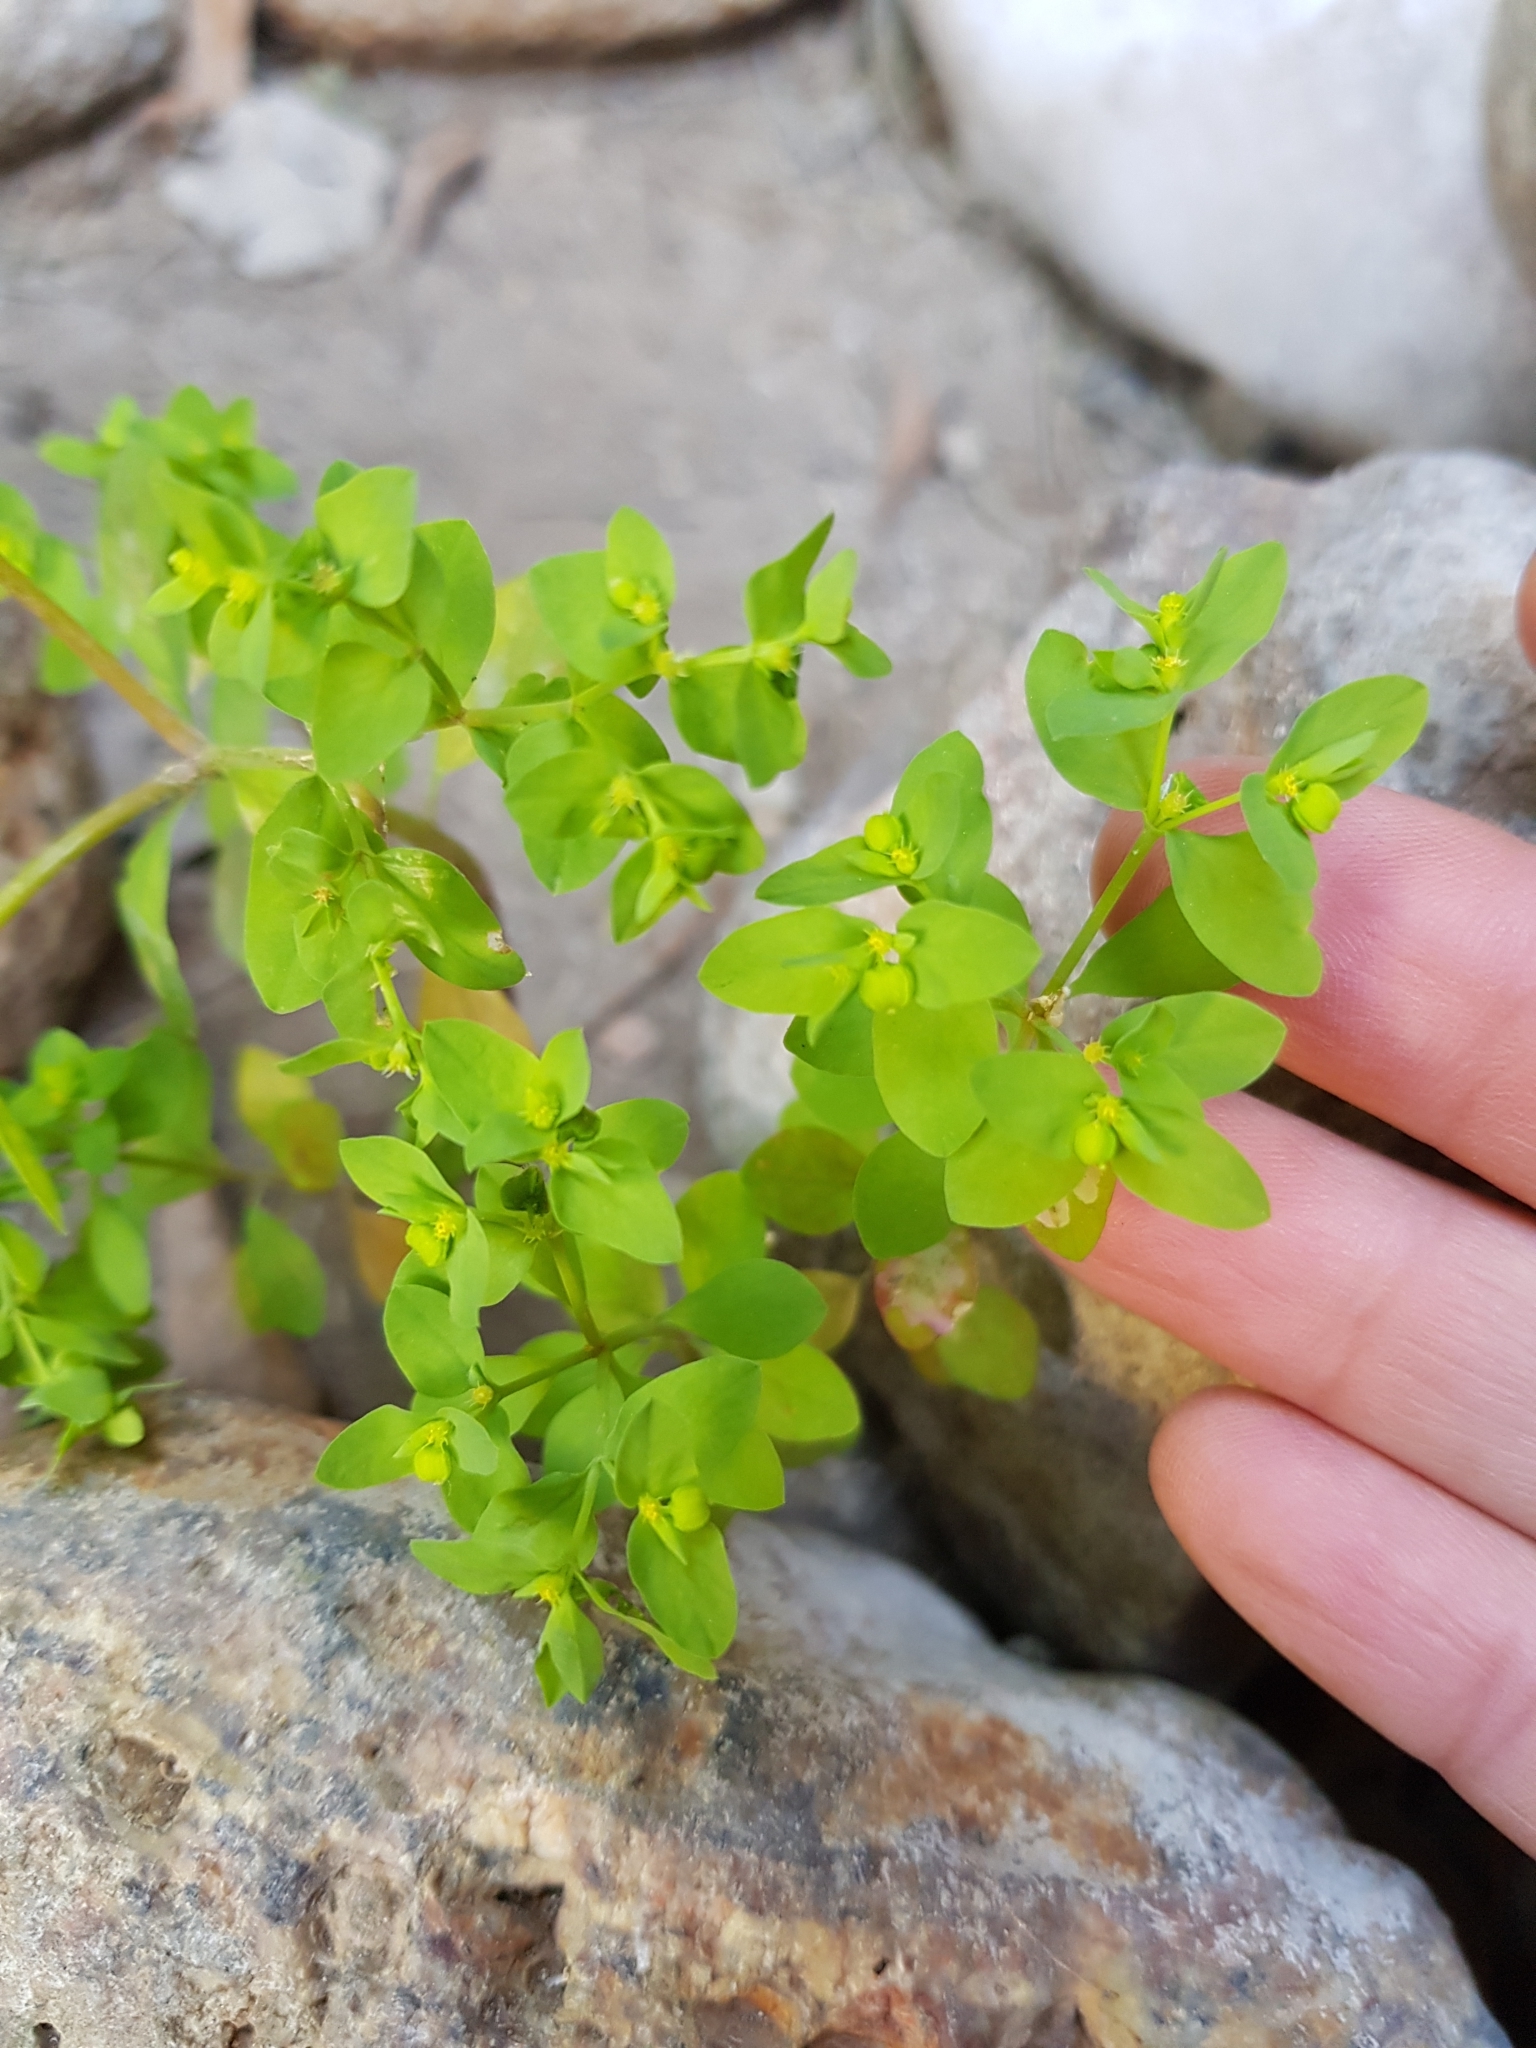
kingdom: Plantae
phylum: Tracheophyta
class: Magnoliopsida
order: Malpighiales
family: Euphorbiaceae
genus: Euphorbia
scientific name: Euphorbia peplus
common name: Petty spurge
